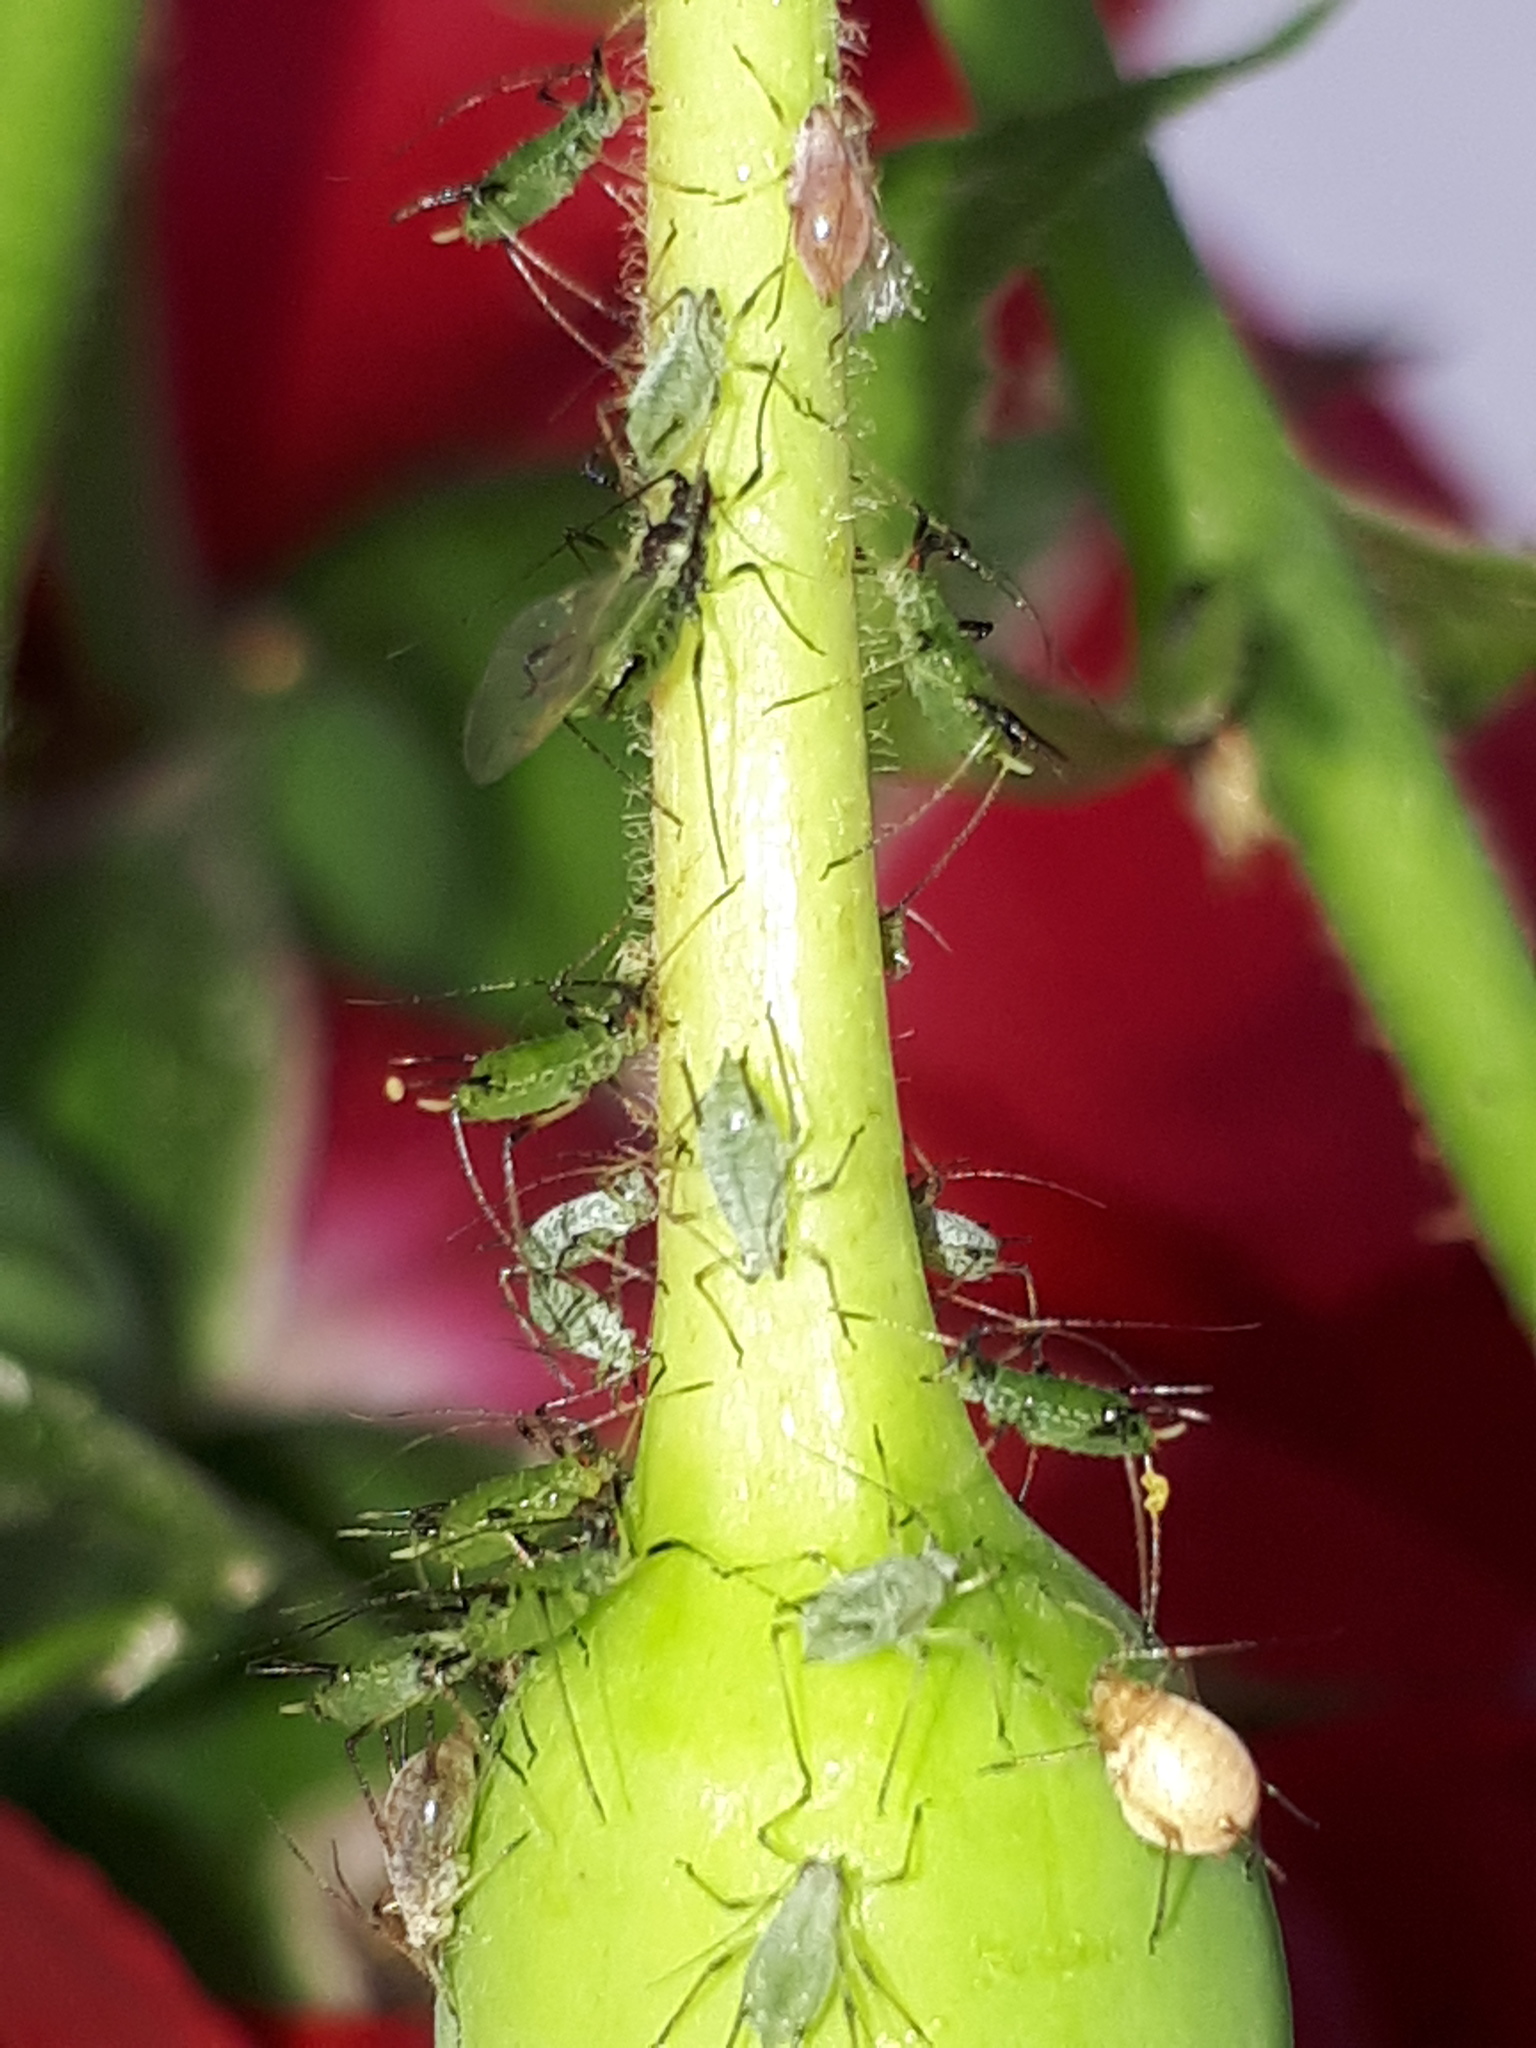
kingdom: Animalia
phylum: Arthropoda
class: Insecta
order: Hemiptera
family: Aphididae
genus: Macrosiphum
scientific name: Macrosiphum rosae
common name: Rose aphid
